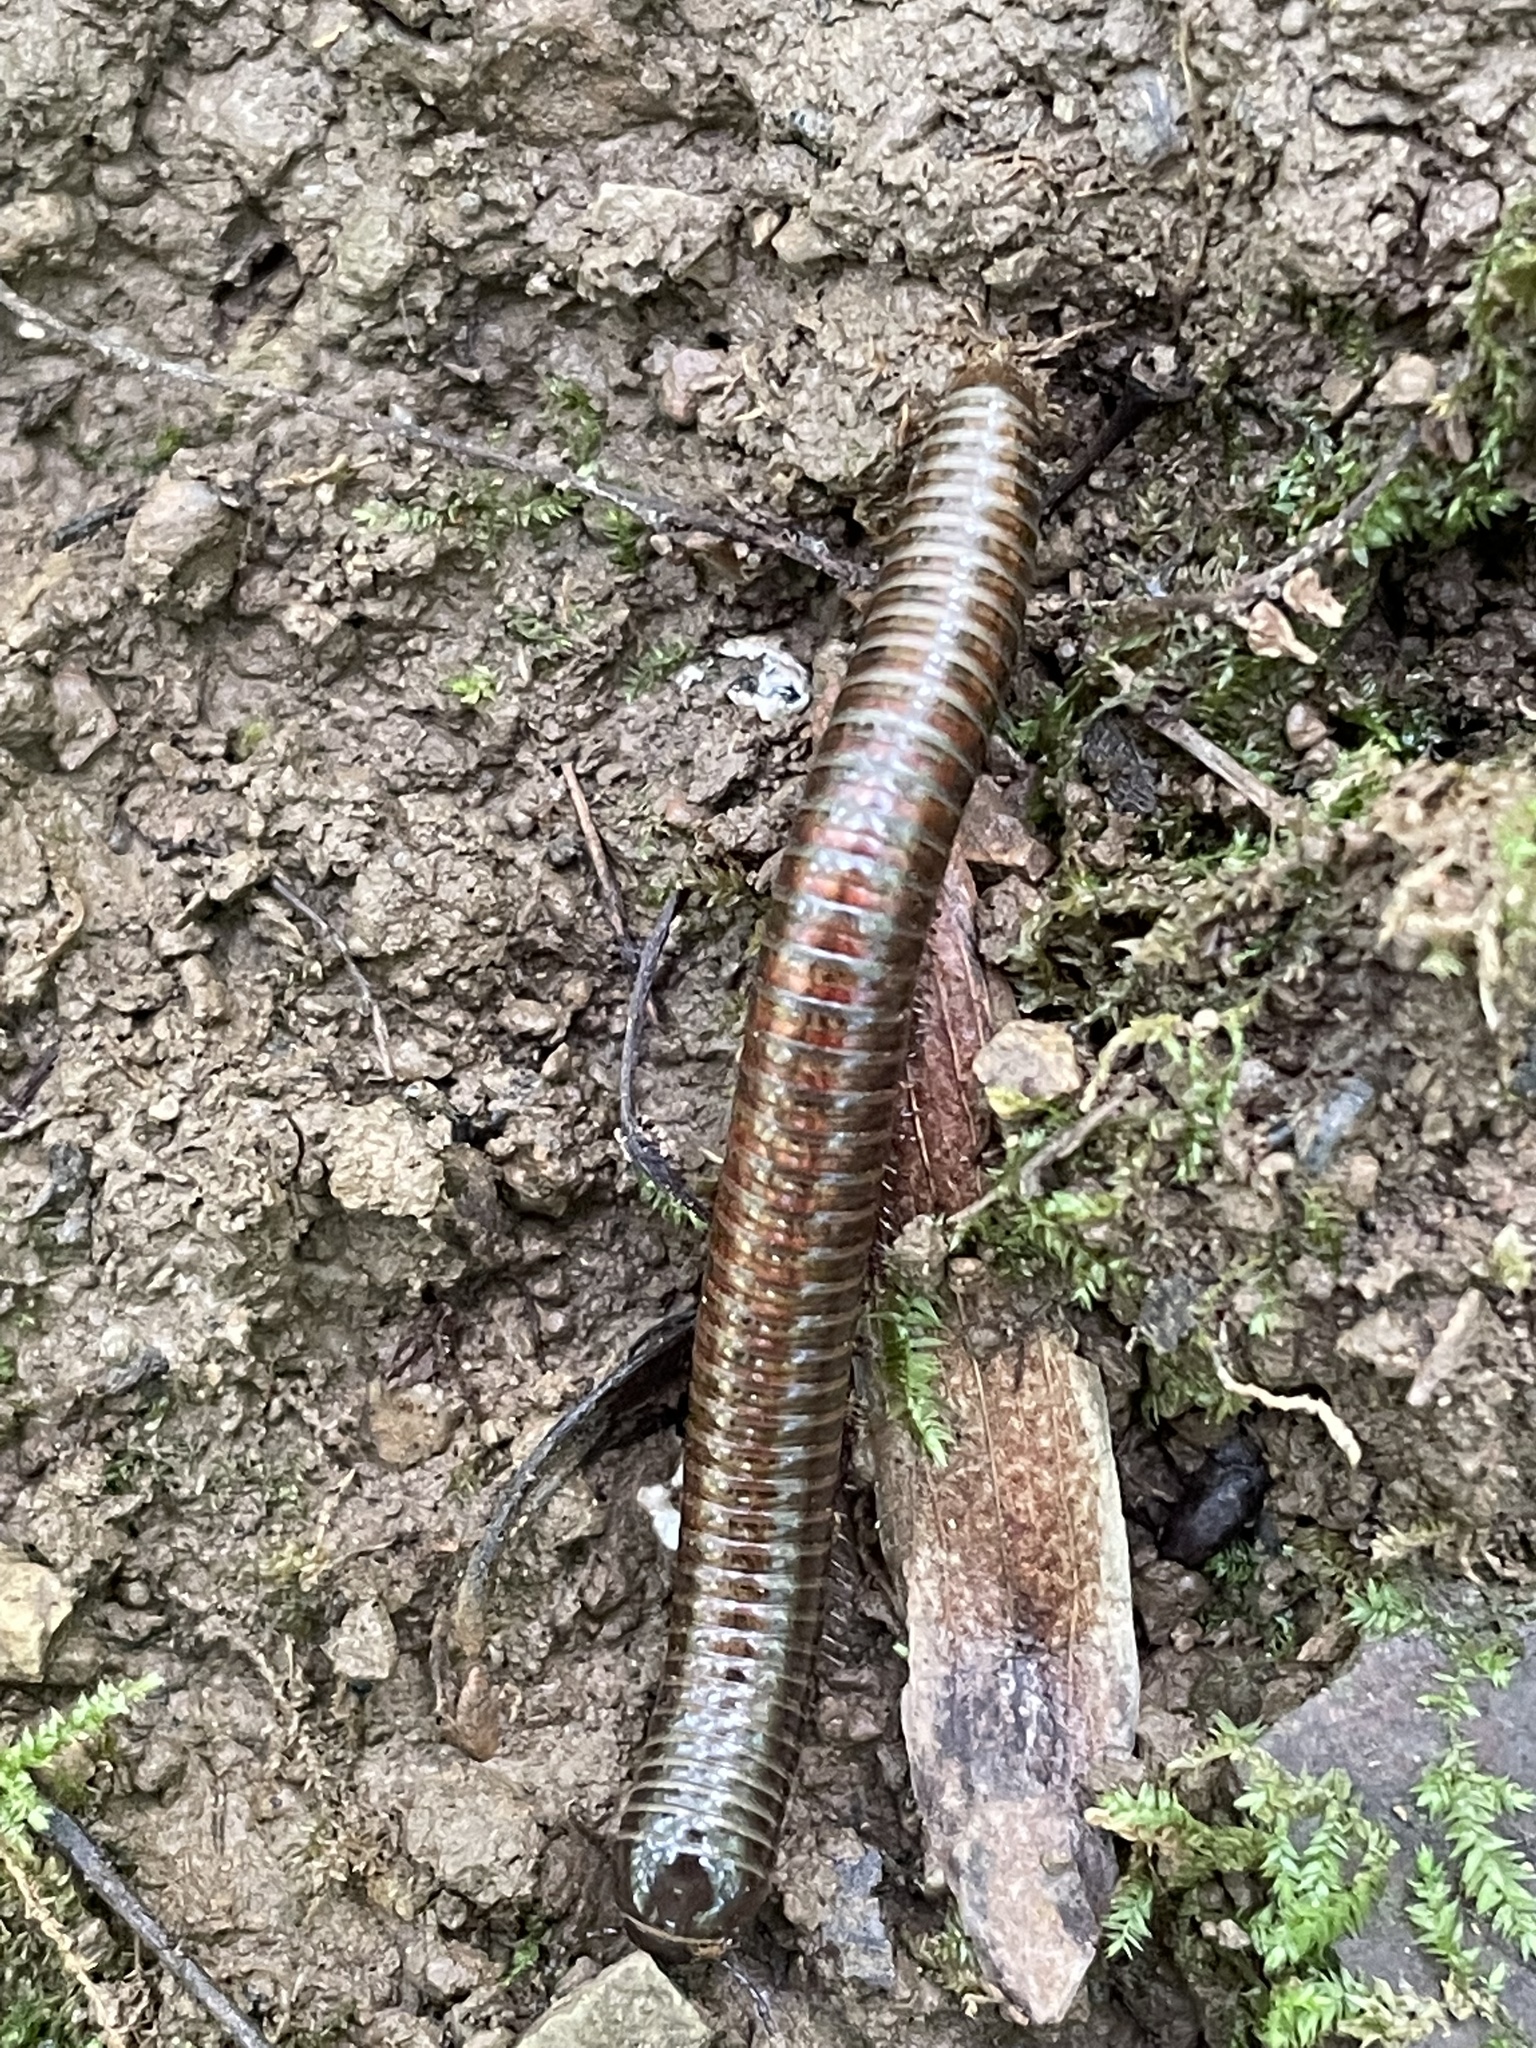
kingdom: Animalia
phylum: Arthropoda
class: Diplopoda
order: Spirostreptida
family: Choctellidae
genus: Choctella
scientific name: Choctella cumminsi
